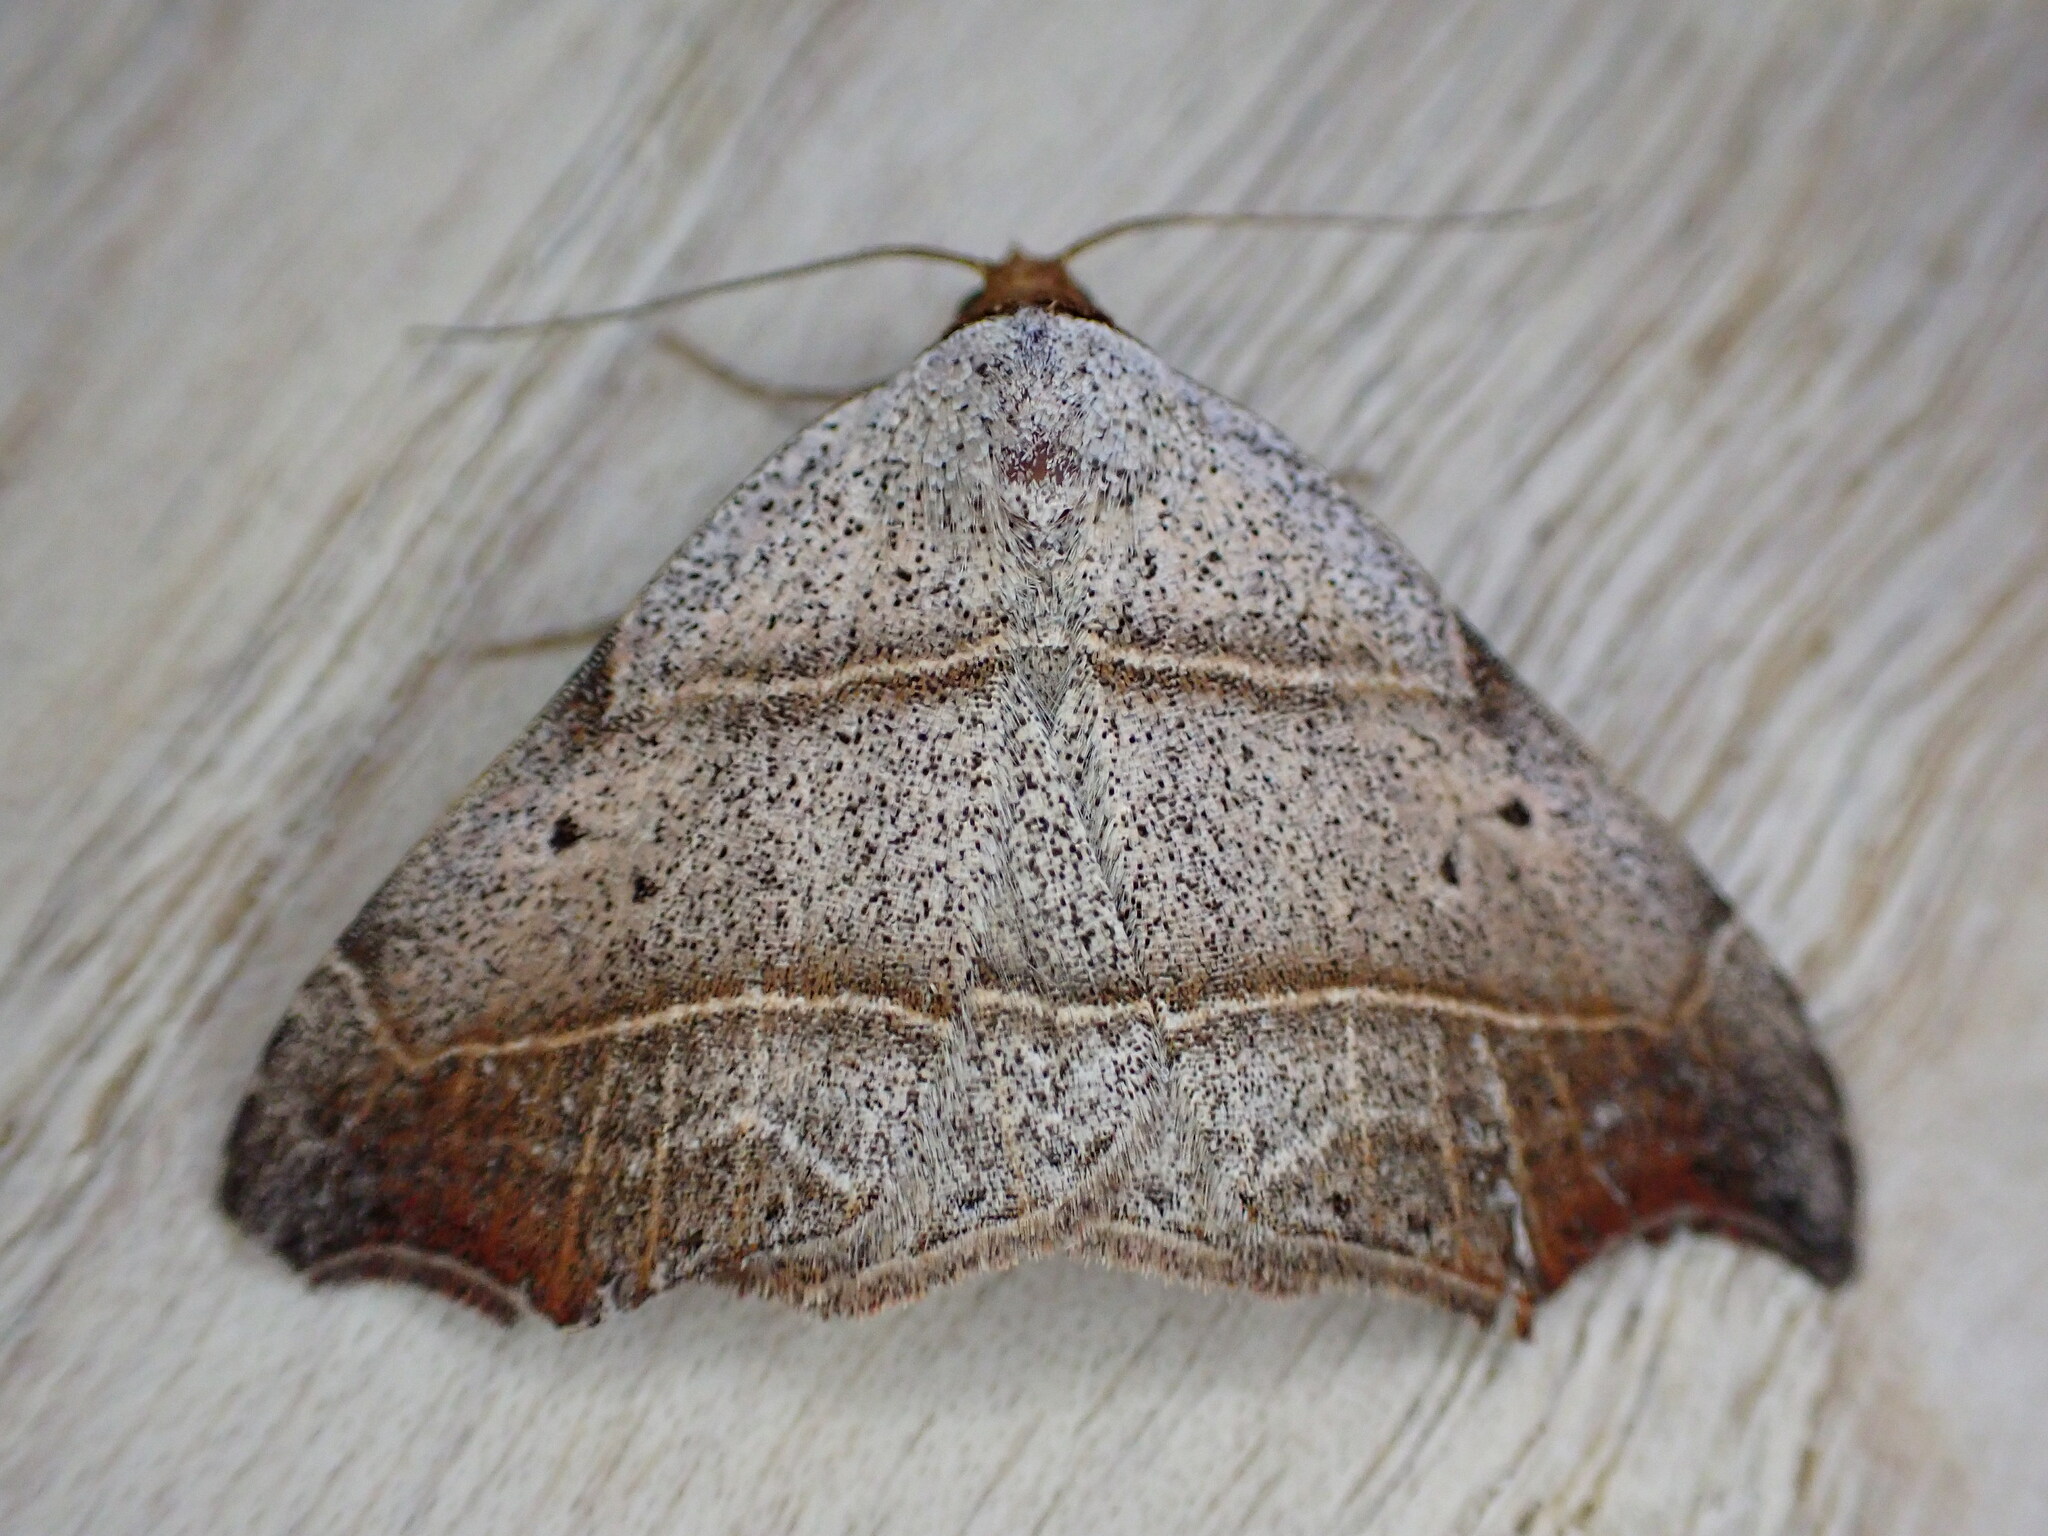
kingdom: Animalia
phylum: Arthropoda
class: Insecta
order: Lepidoptera
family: Erebidae
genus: Laspeyria
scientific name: Laspeyria flexula
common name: Beautiful hook-tip
